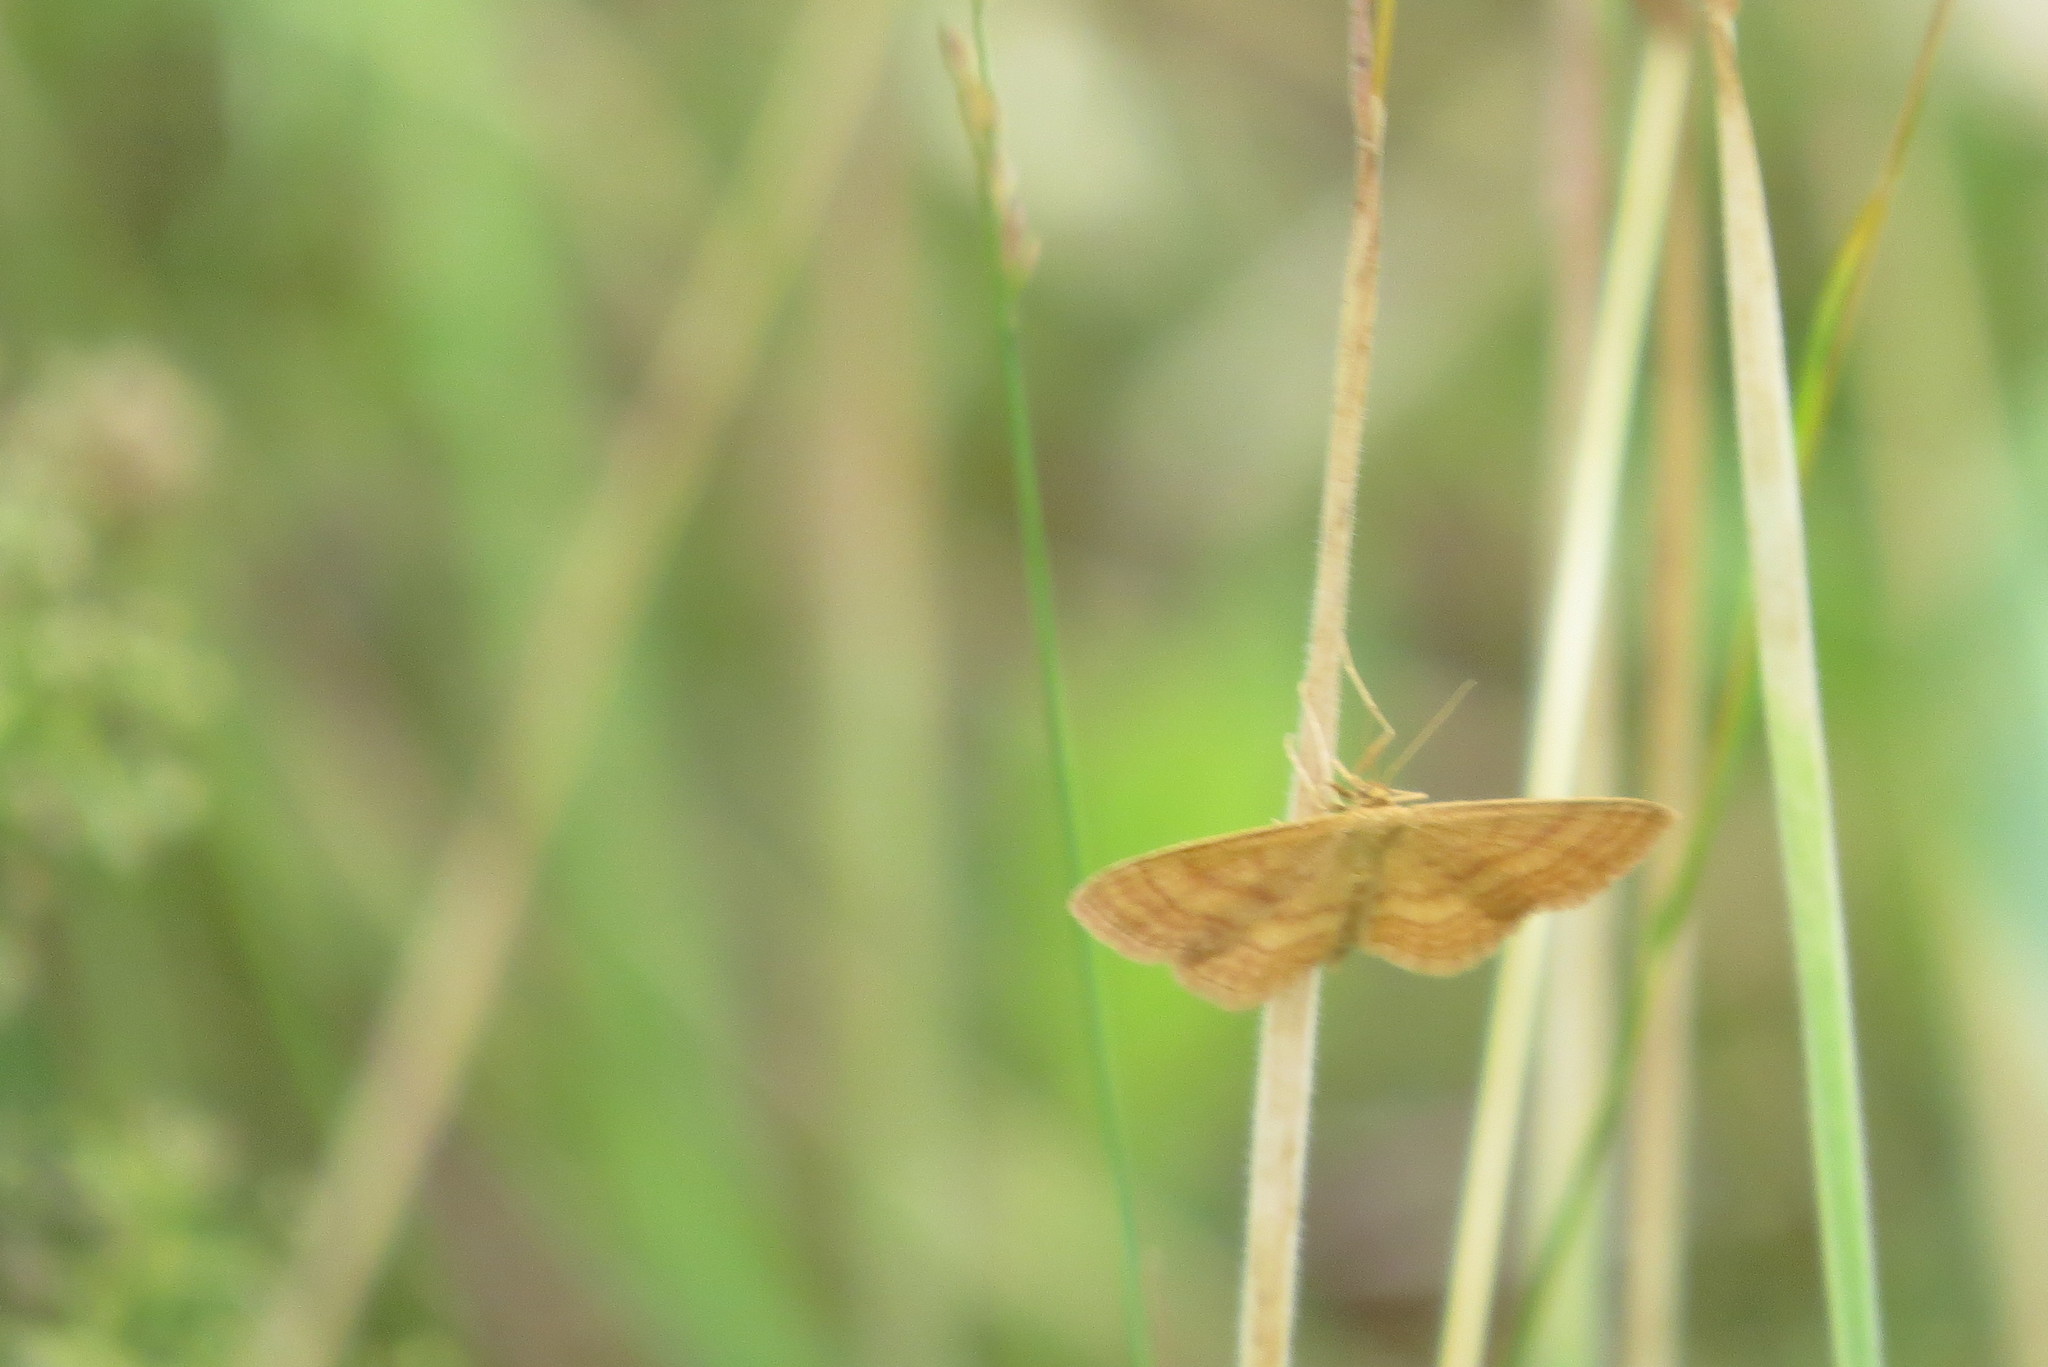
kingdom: Animalia
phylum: Arthropoda
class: Insecta
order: Lepidoptera
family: Geometridae
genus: Idaea
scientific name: Idaea ochrata
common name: Bright wave
